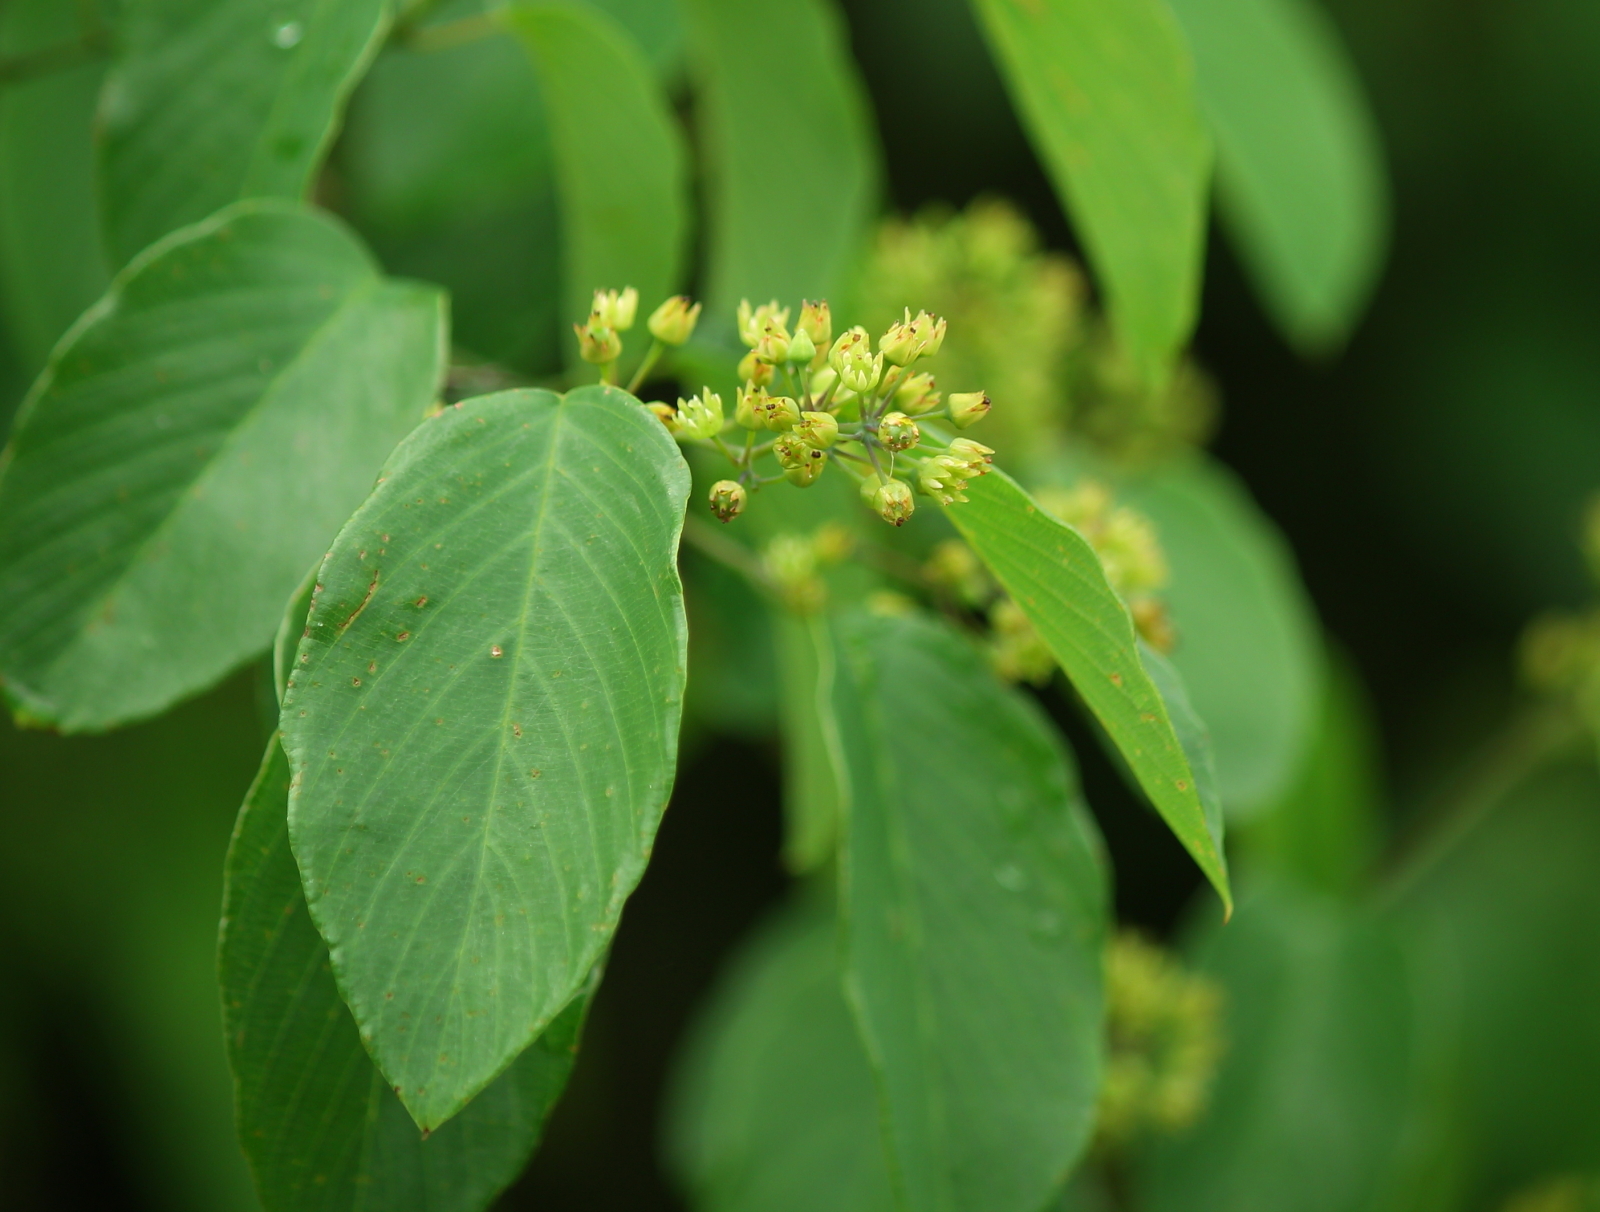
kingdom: Plantae
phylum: Tracheophyta
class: Magnoliopsida
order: Rosales
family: Rhamnaceae
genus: Berchemia
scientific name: Berchemia scandens
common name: Supplejack
